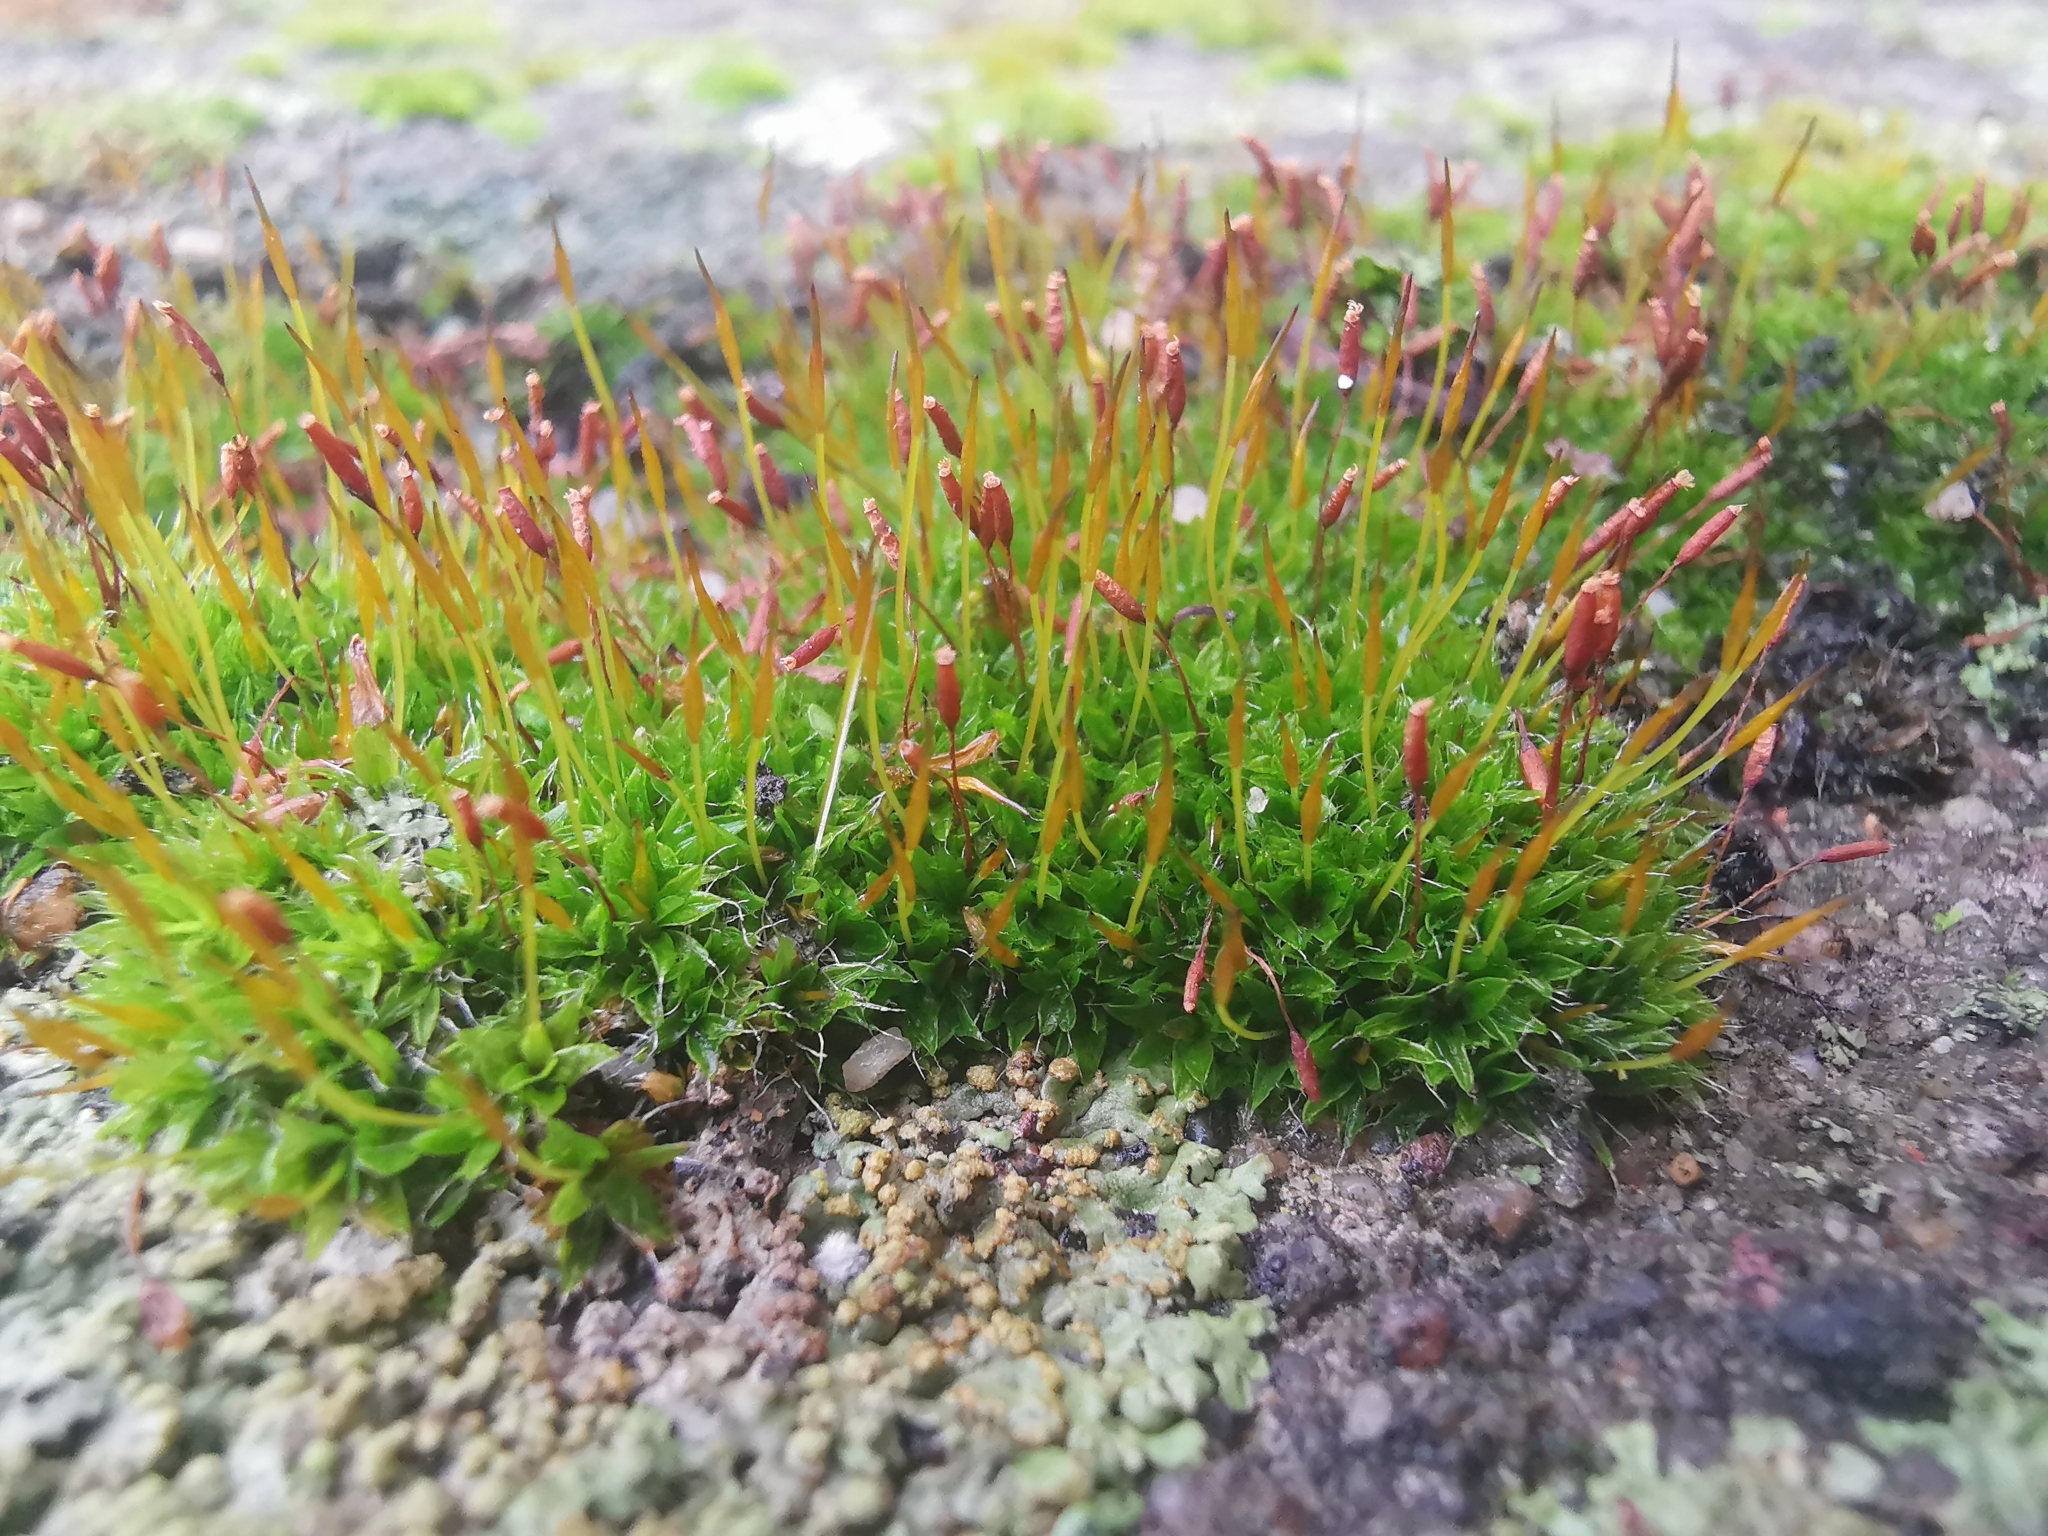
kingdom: Plantae
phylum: Bryophyta
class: Bryopsida
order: Pottiales
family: Pottiaceae
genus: Tortula
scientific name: Tortula muralis
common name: Wall screw-moss
